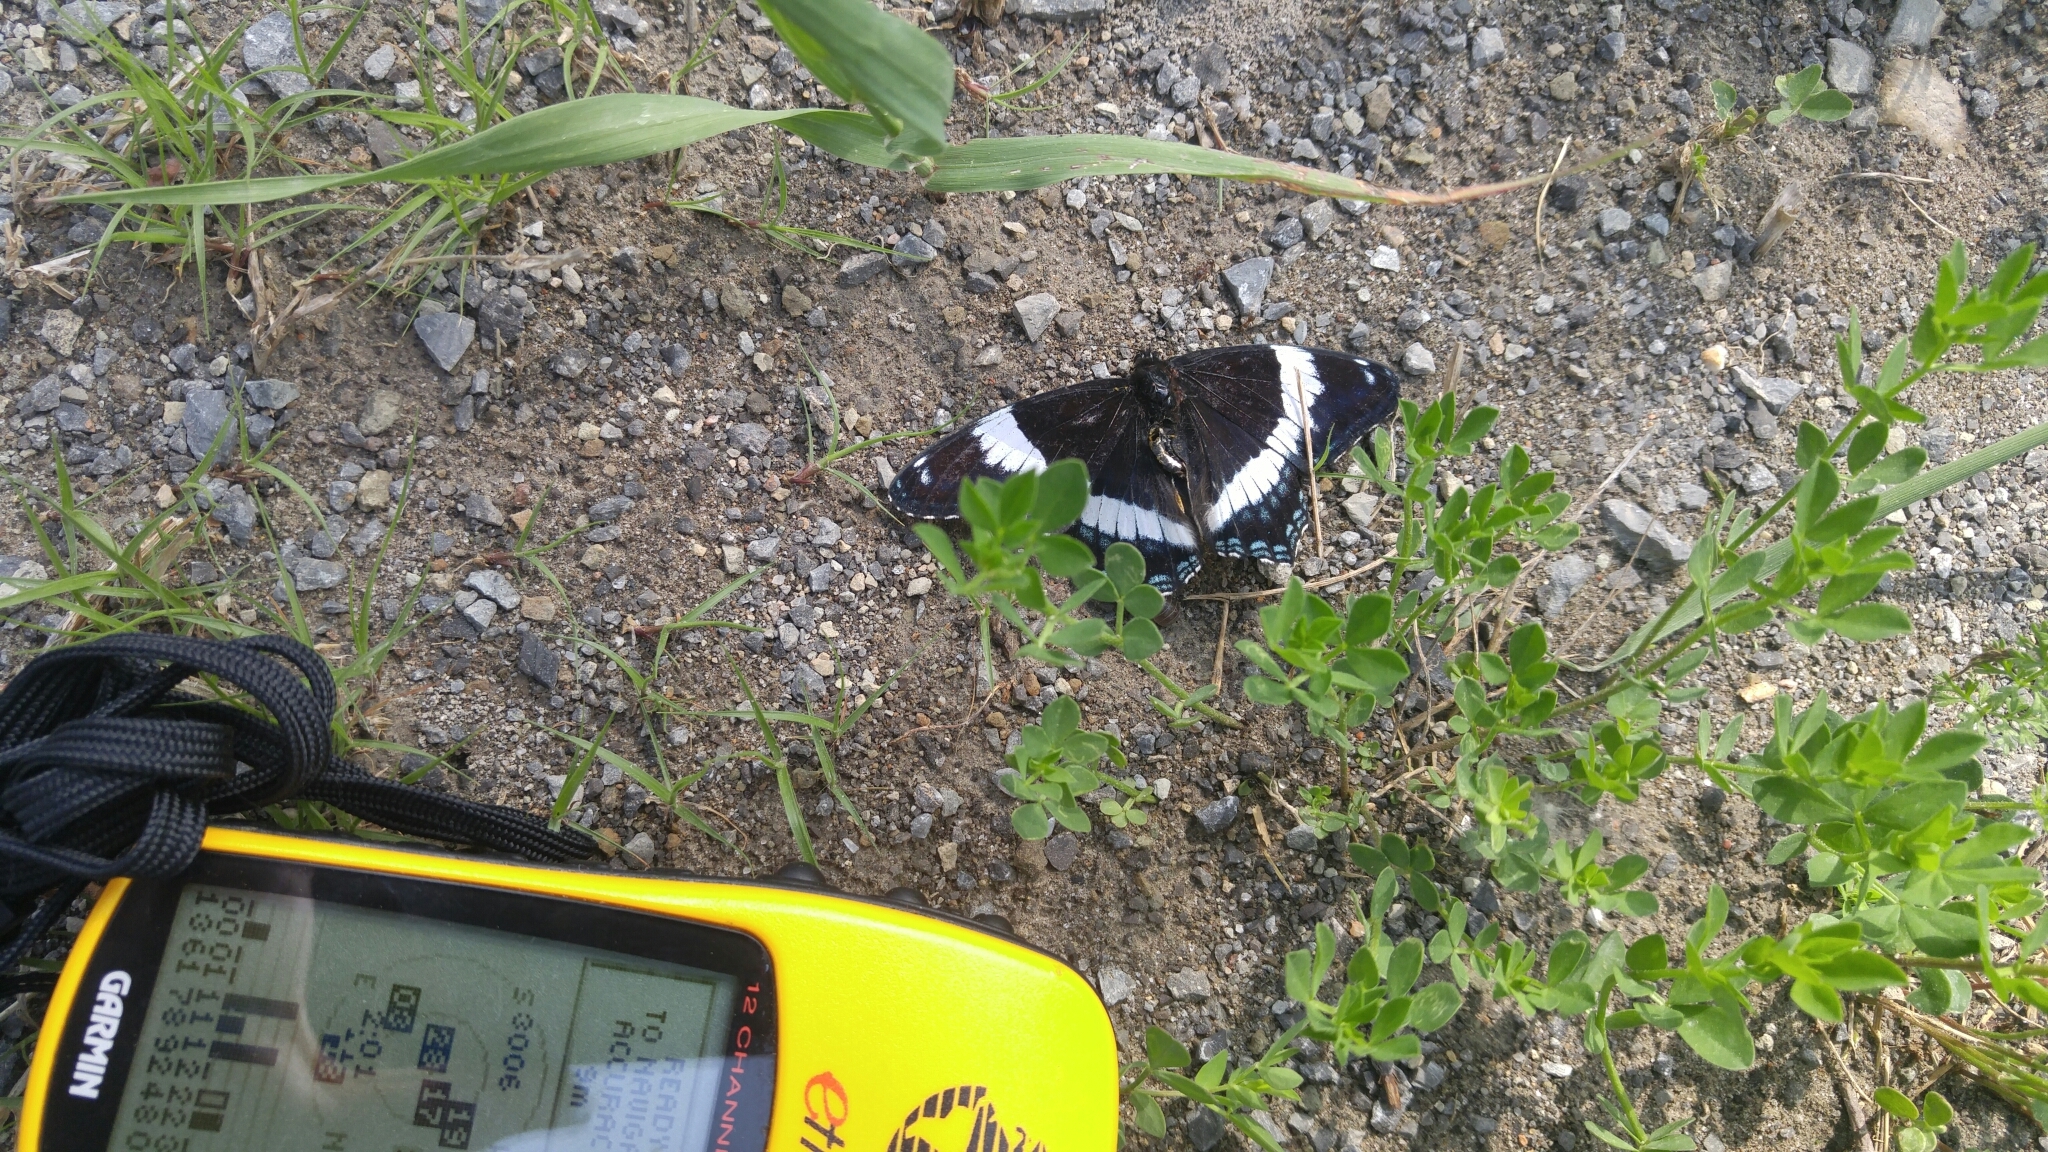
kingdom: Animalia
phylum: Arthropoda
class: Insecta
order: Lepidoptera
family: Nymphalidae
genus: Limenitis
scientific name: Limenitis arthemis
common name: Red-spotted admiral
